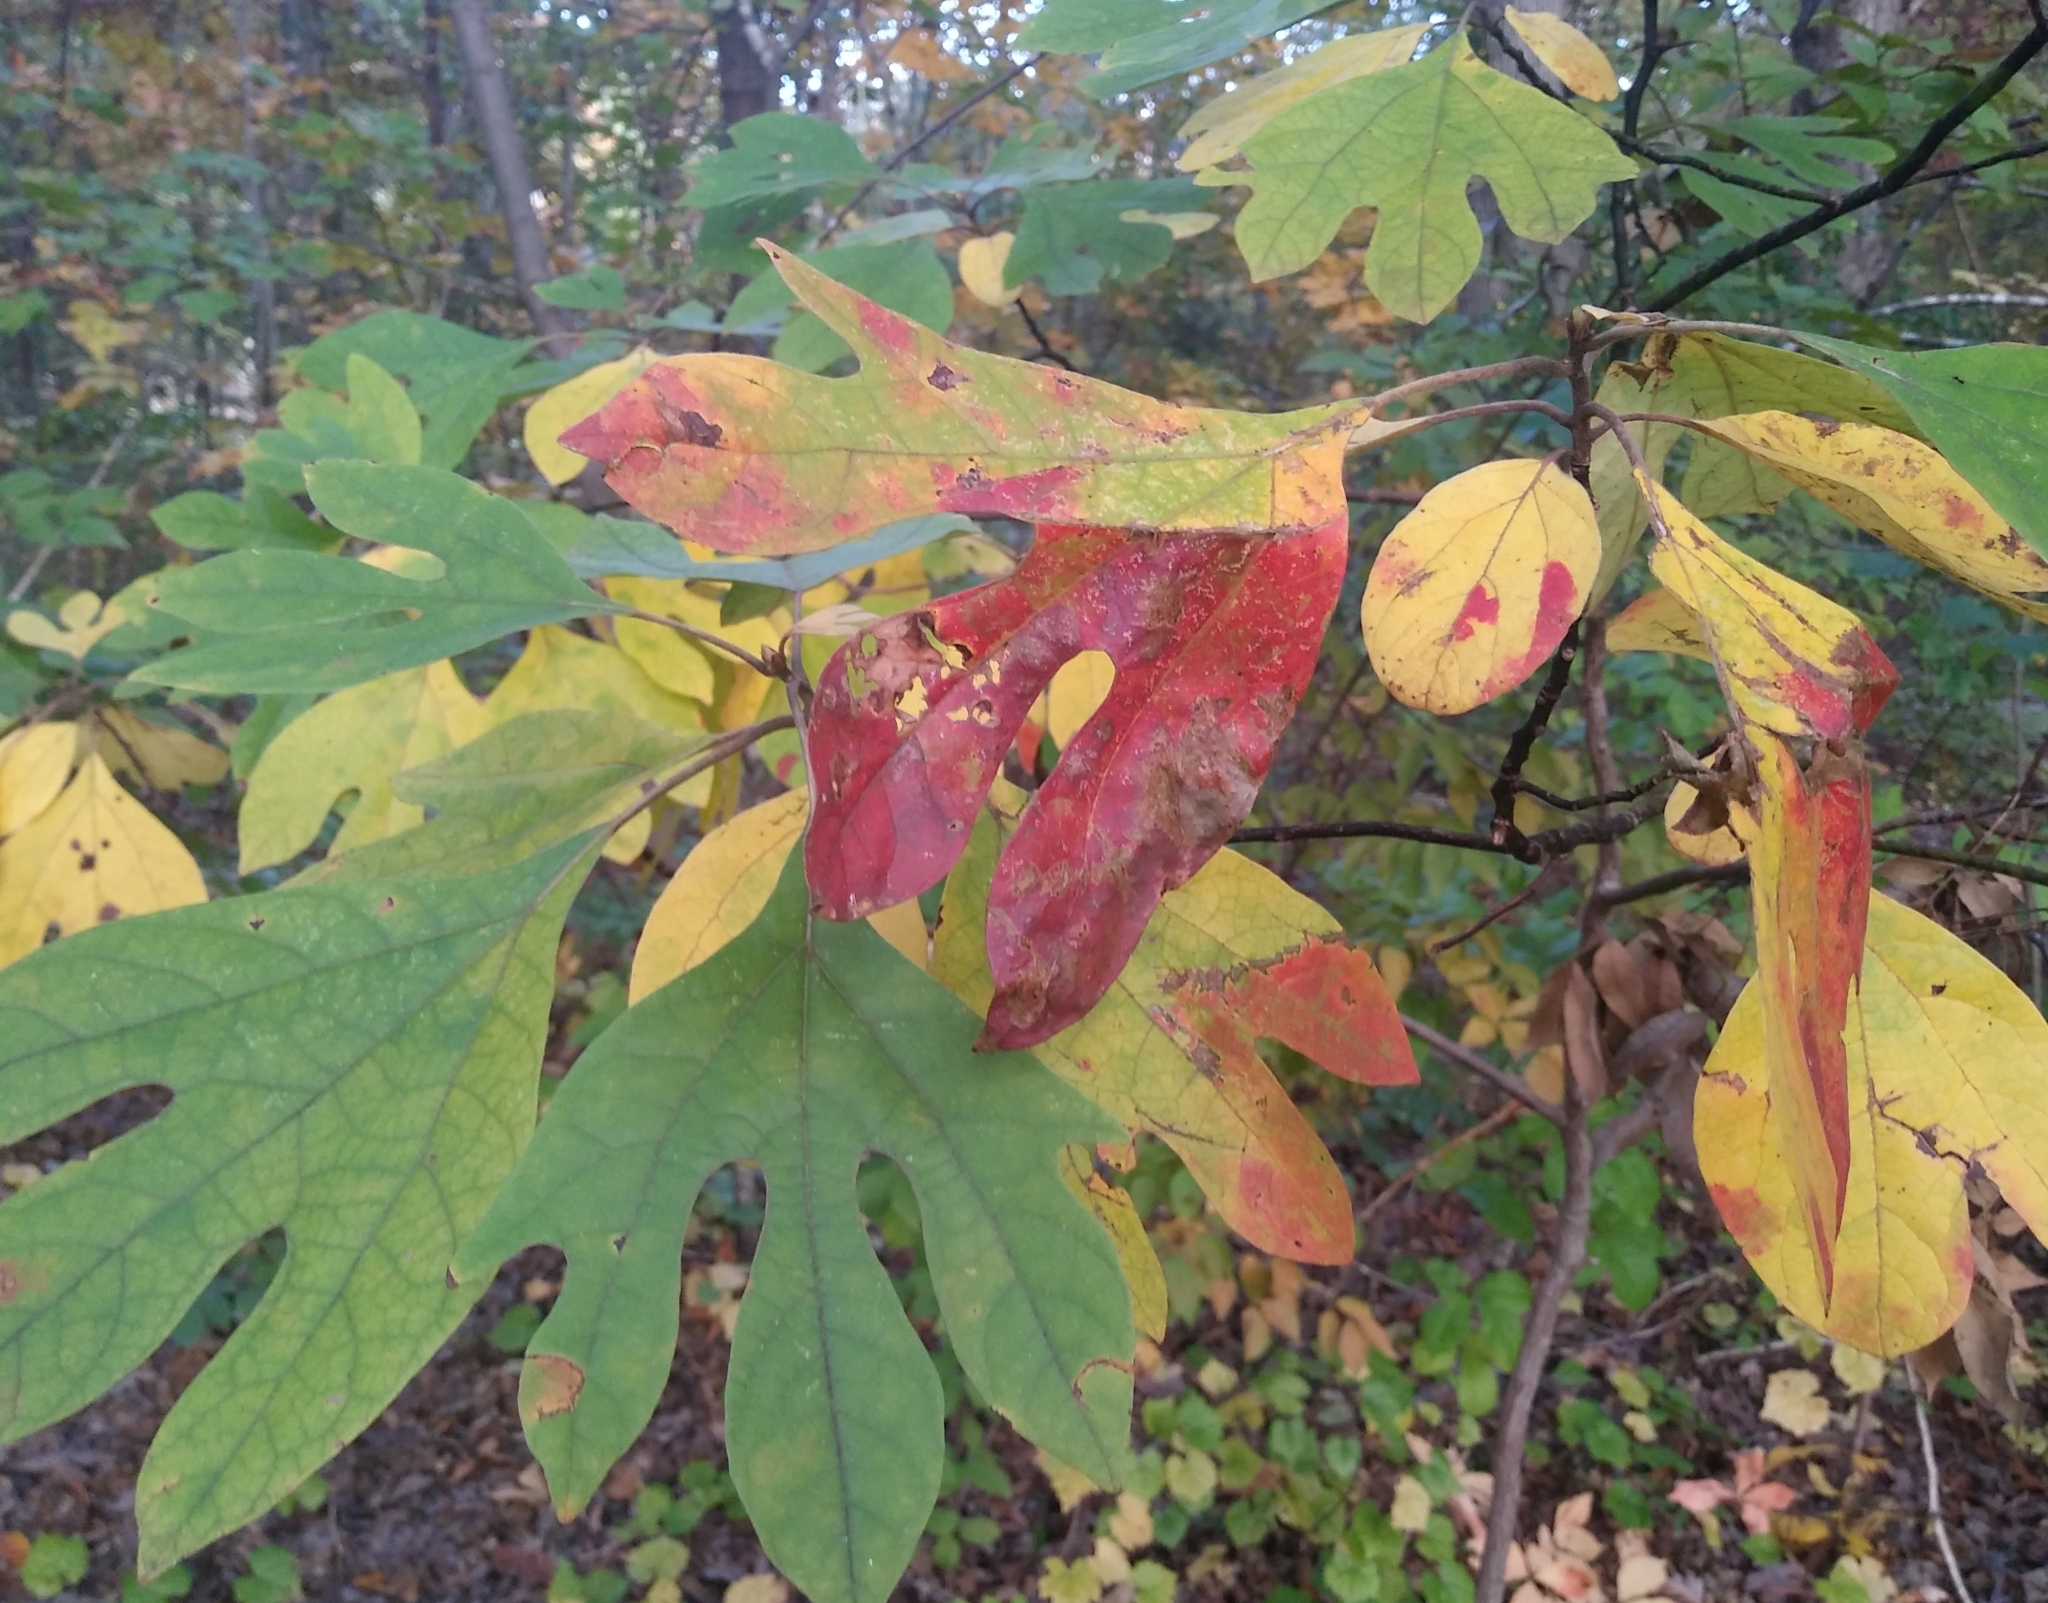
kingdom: Plantae
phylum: Tracheophyta
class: Magnoliopsida
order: Laurales
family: Lauraceae
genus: Sassafras
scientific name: Sassafras albidum
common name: Sassafras
